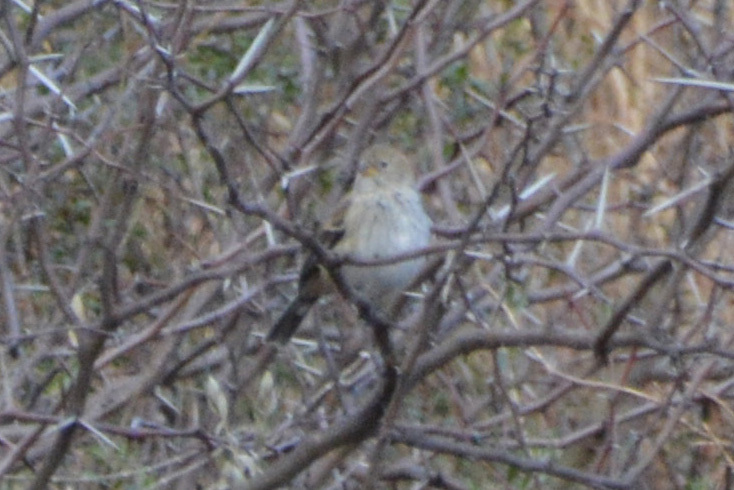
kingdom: Animalia
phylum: Chordata
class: Aves
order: Passeriformes
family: Thraupidae
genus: Catamenia
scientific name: Catamenia analis
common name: Band-tailed seedeater
